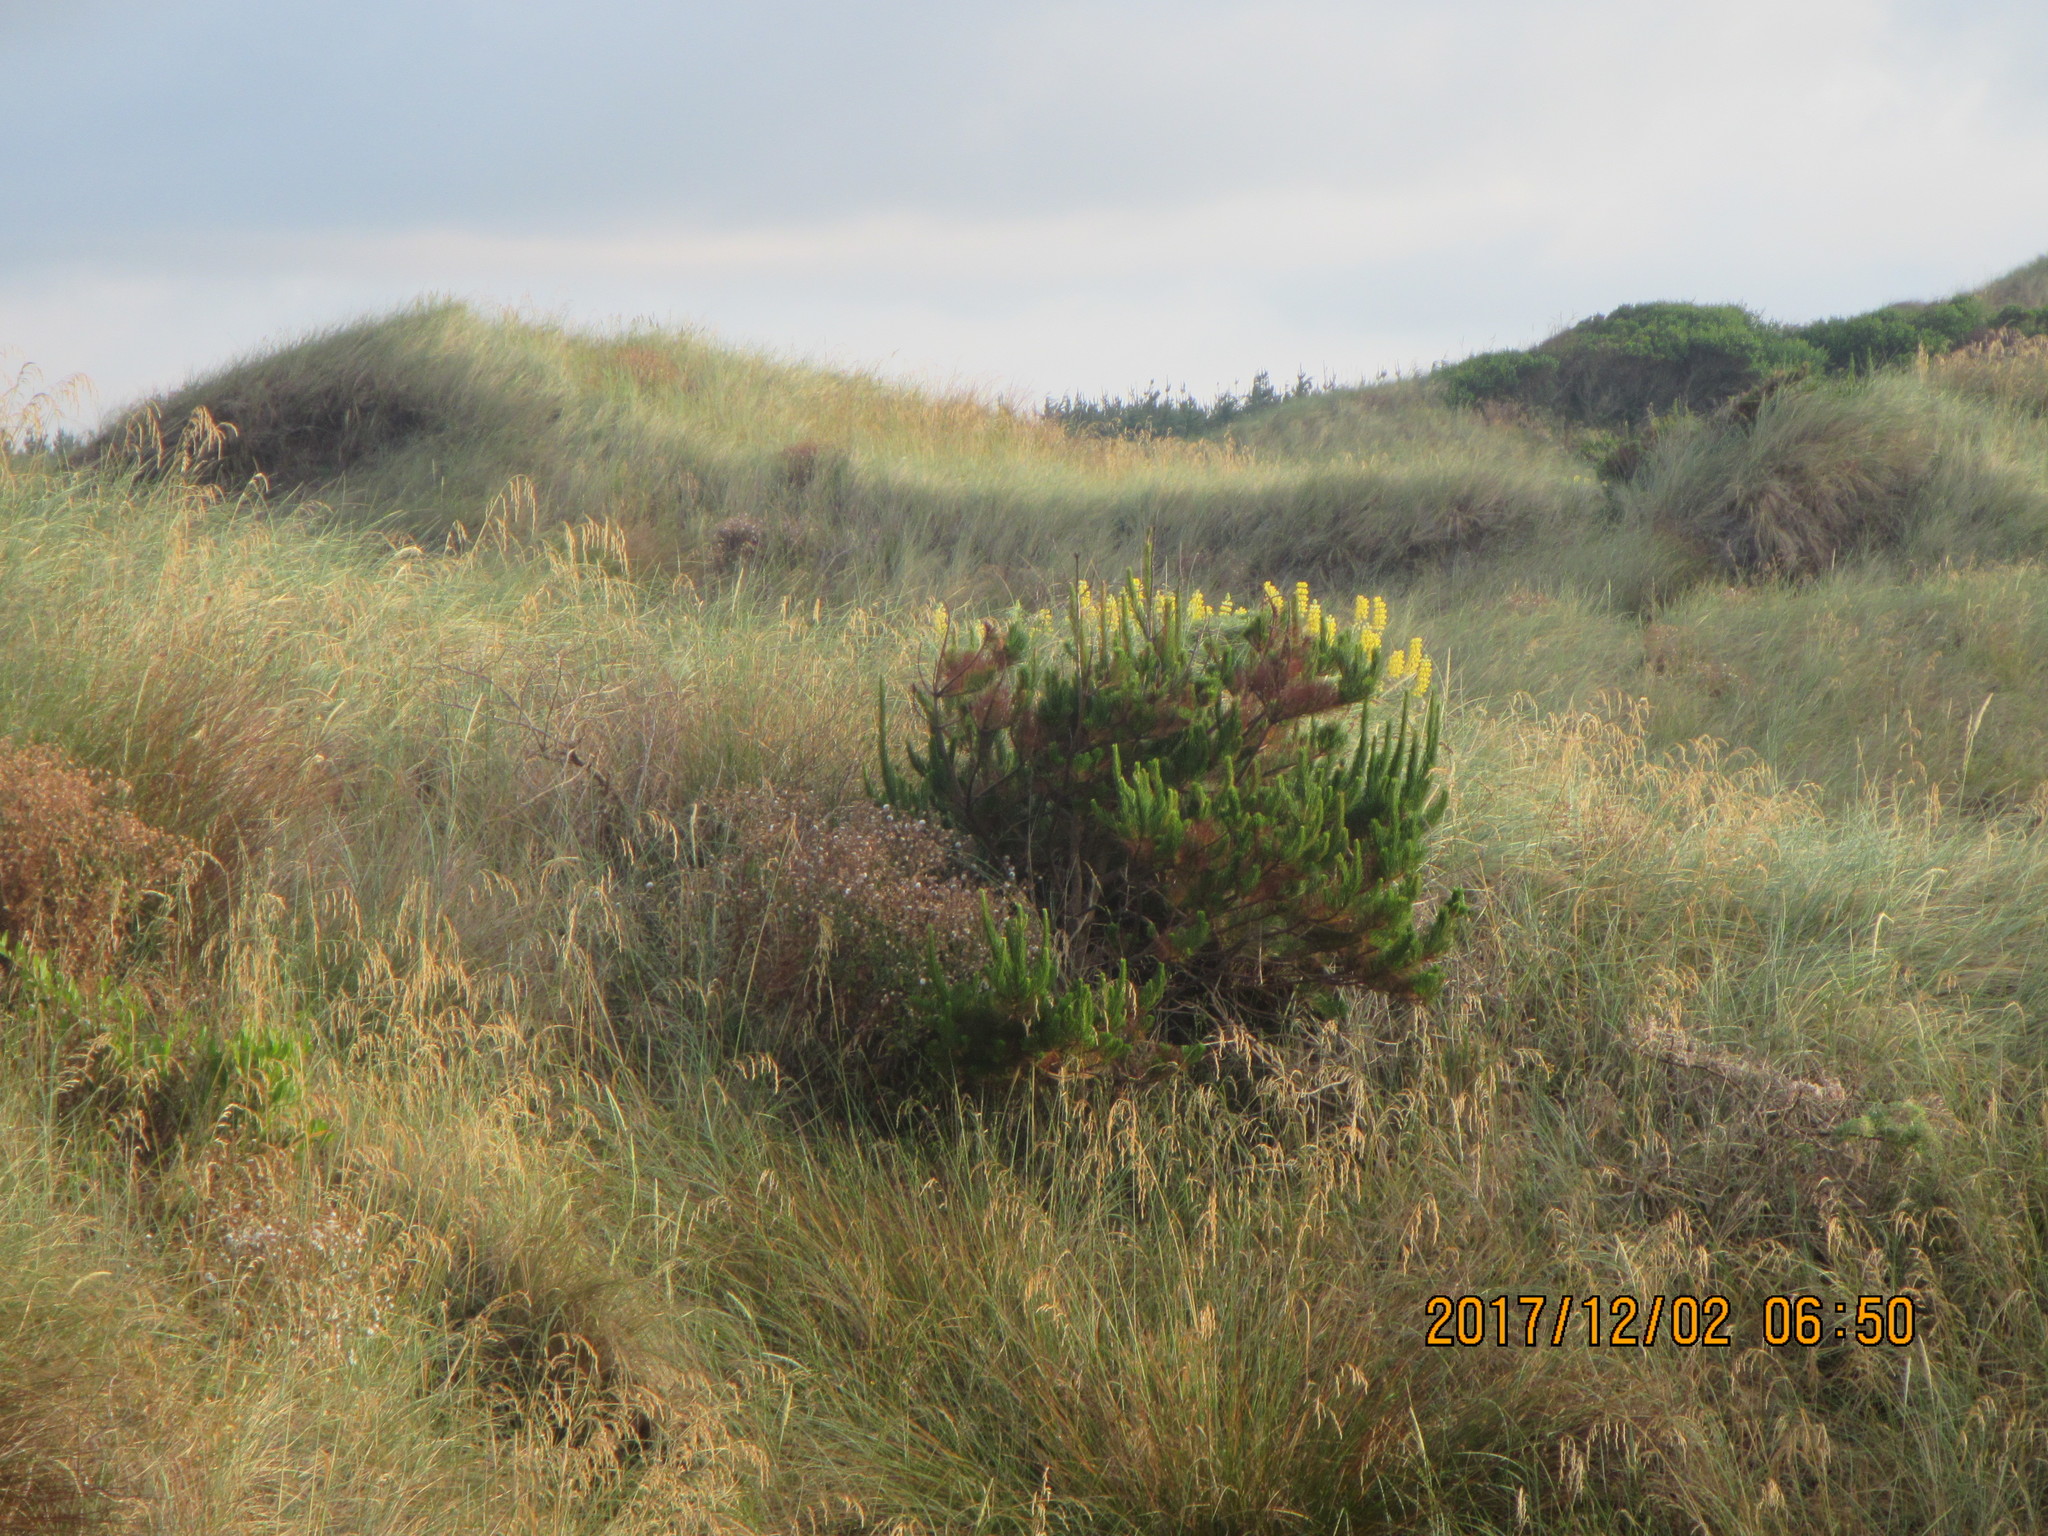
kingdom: Plantae
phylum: Tracheophyta
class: Pinopsida
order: Pinales
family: Pinaceae
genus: Pinus
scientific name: Pinus radiata
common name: Monterey pine
